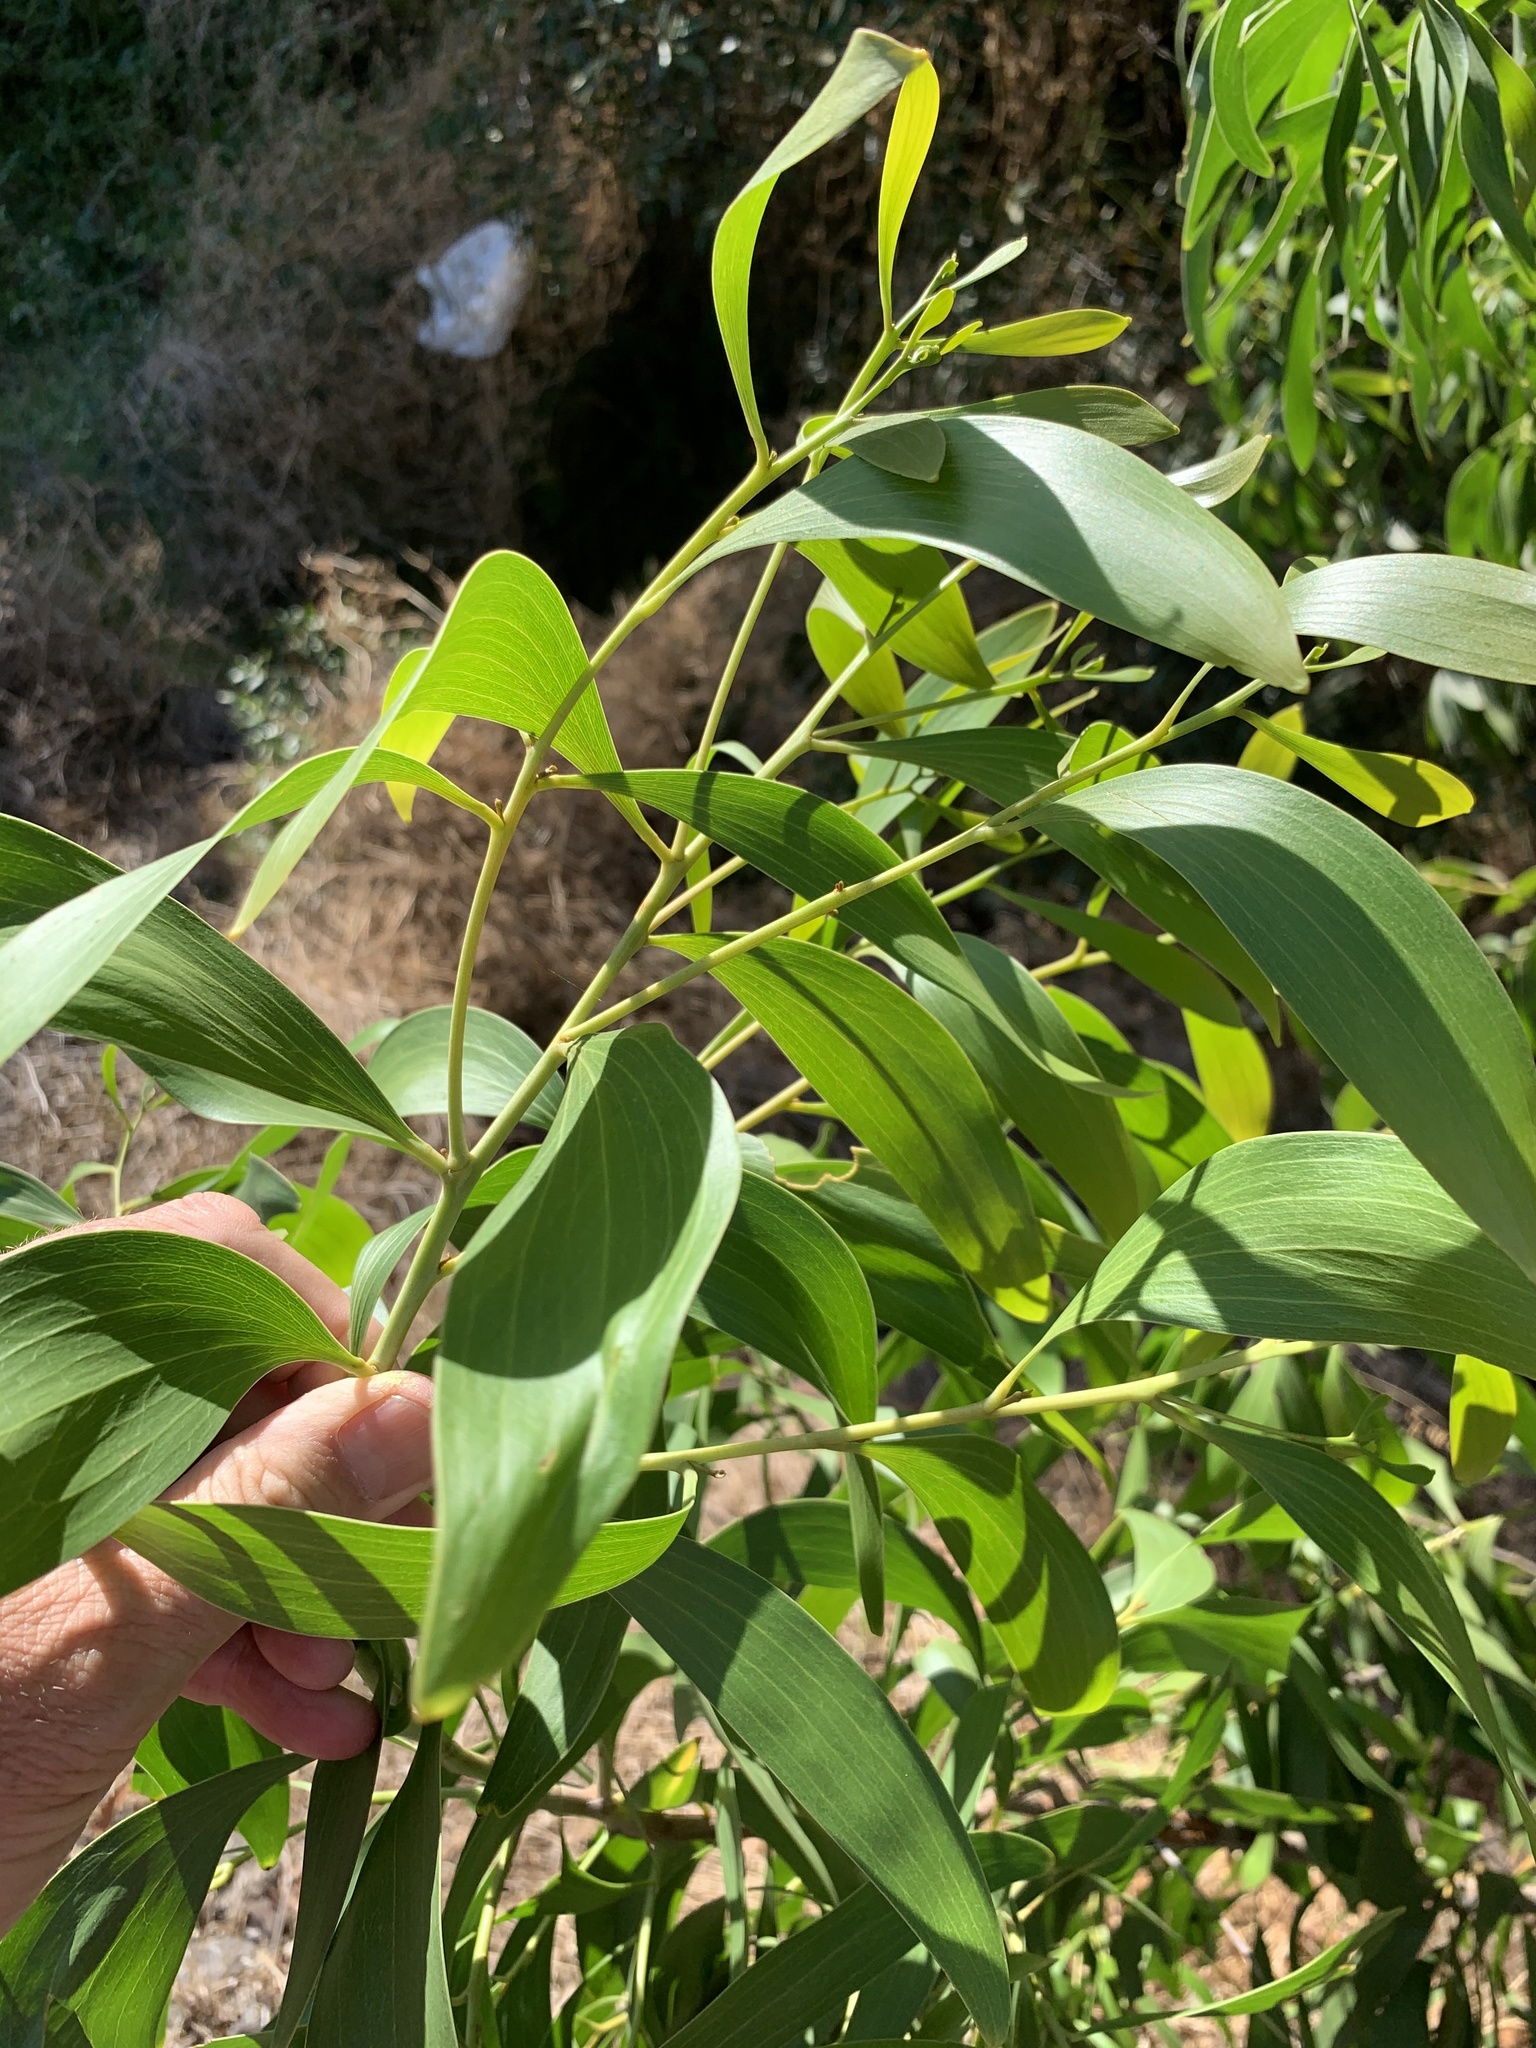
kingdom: Plantae
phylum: Tracheophyta
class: Magnoliopsida
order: Fabales
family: Fabaceae
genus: Acacia
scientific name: Acacia implexa
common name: Black wattle
